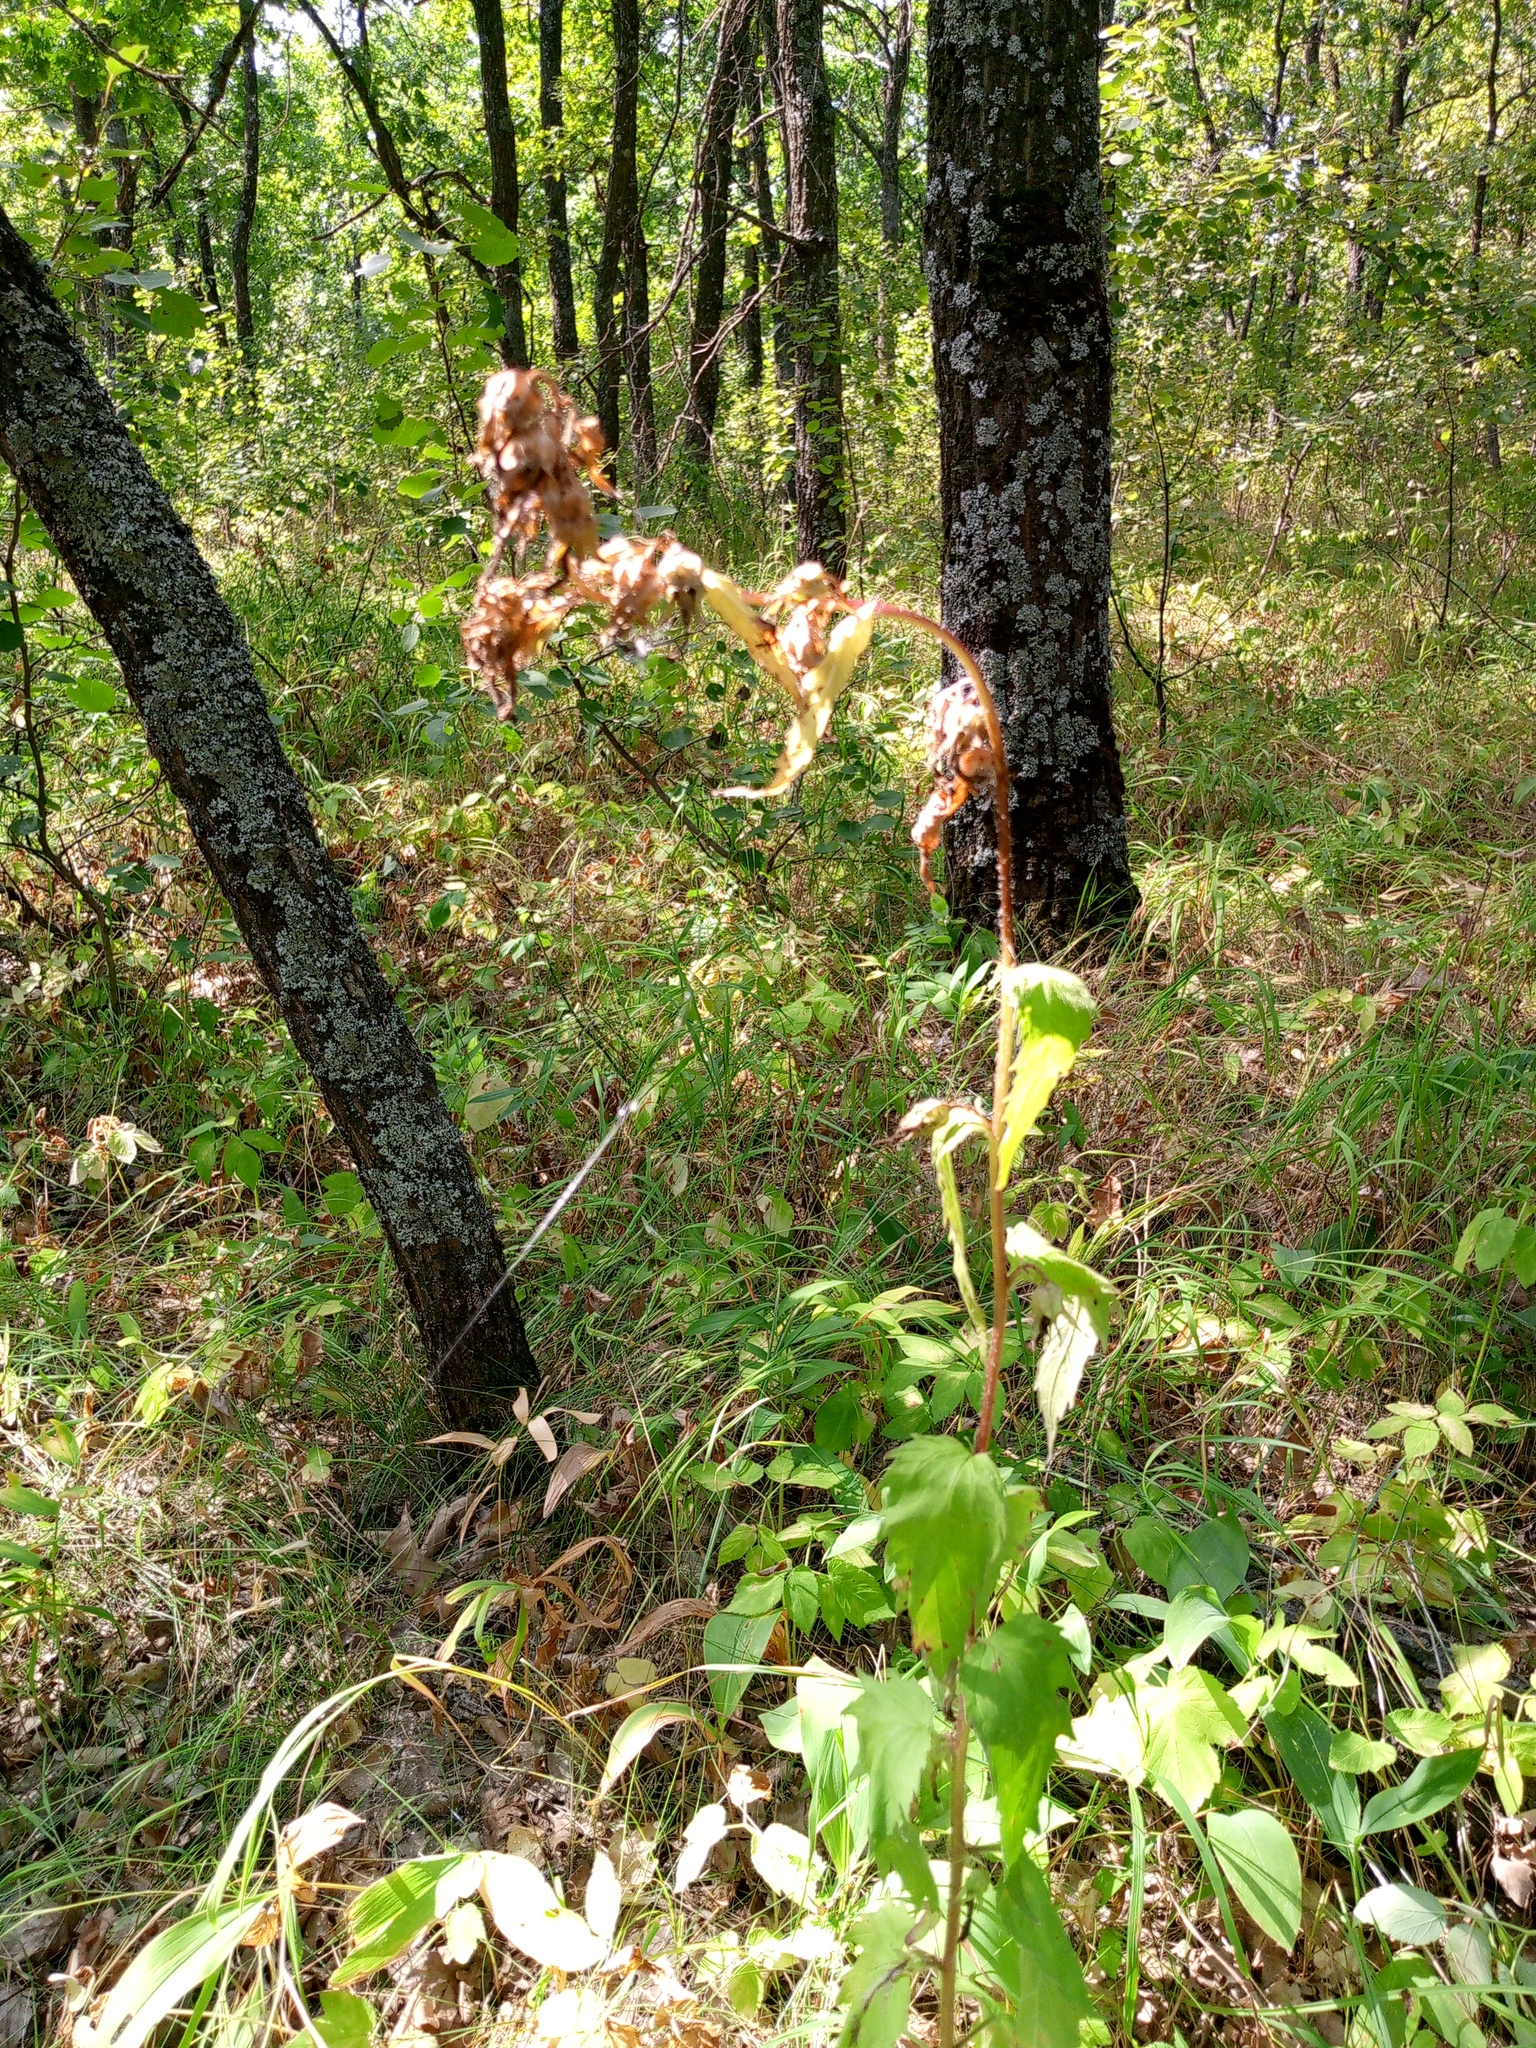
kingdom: Plantae
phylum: Tracheophyta
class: Magnoliopsida
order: Asterales
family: Campanulaceae
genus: Campanula
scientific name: Campanula trachelium
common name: Nettle-leaved bellflower
